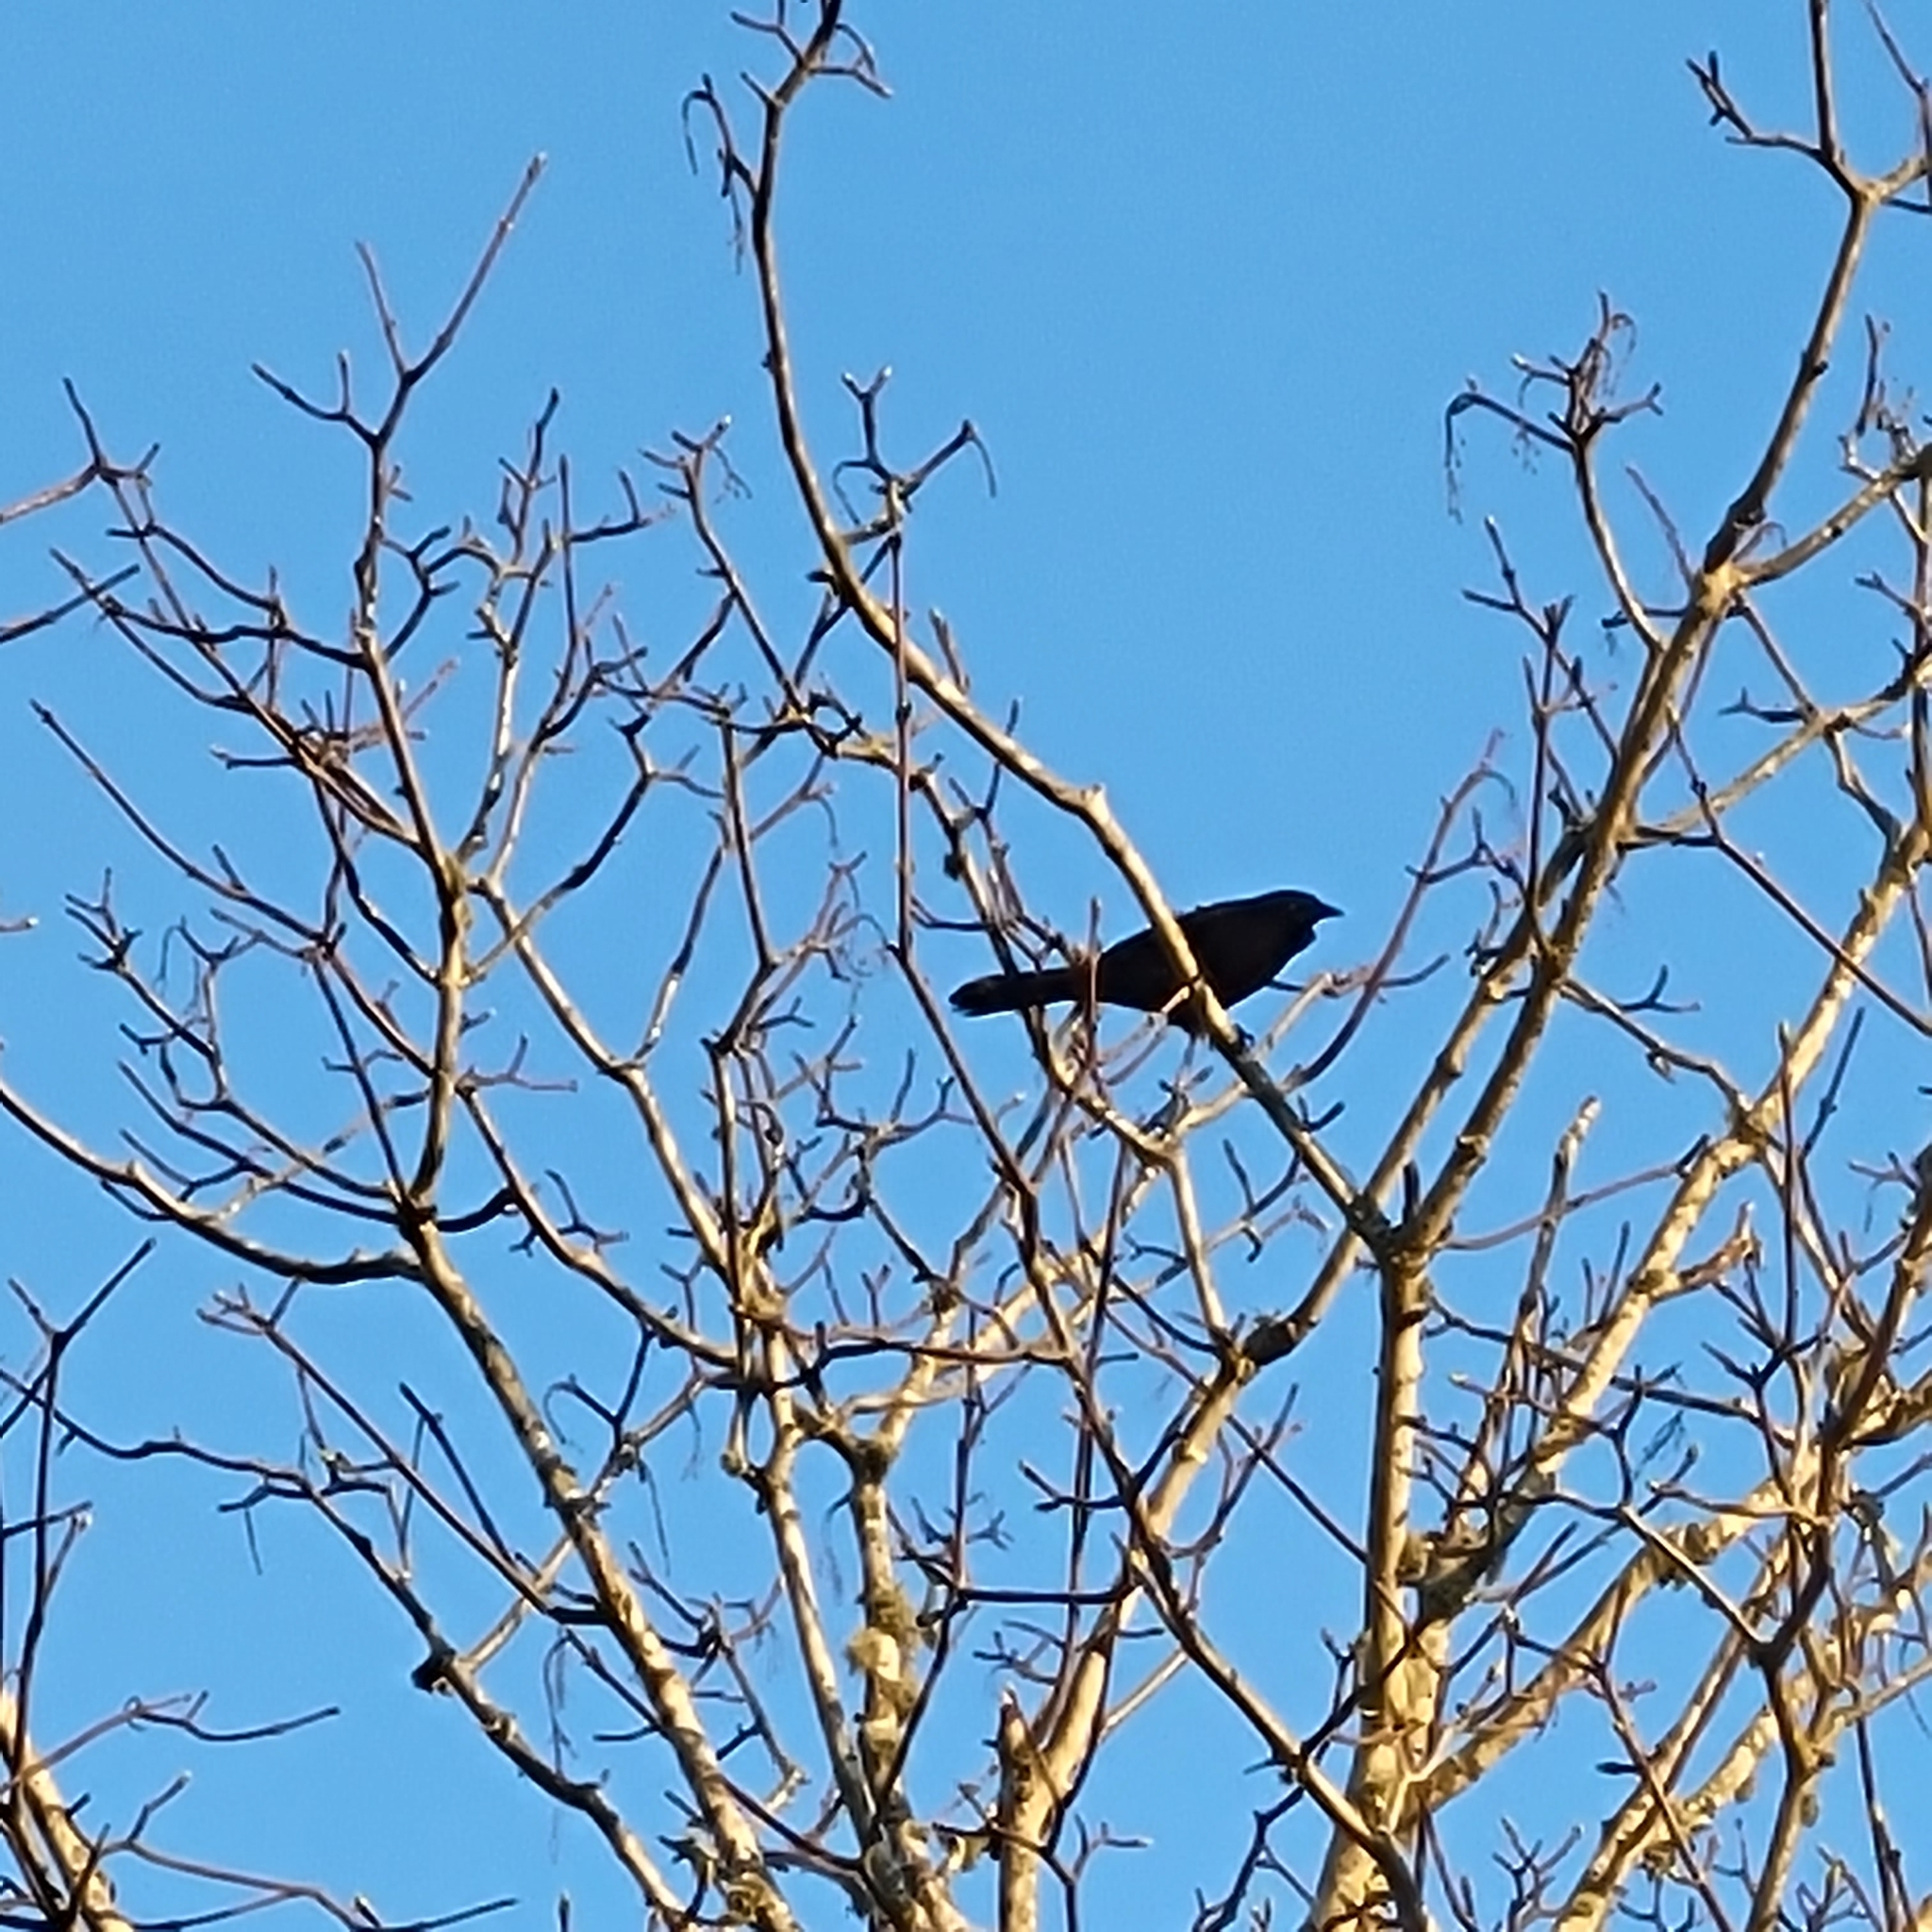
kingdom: Animalia
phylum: Chordata
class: Aves
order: Passeriformes
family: Icteridae
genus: Quiscalus
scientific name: Quiscalus quiscula
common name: Common grackle
